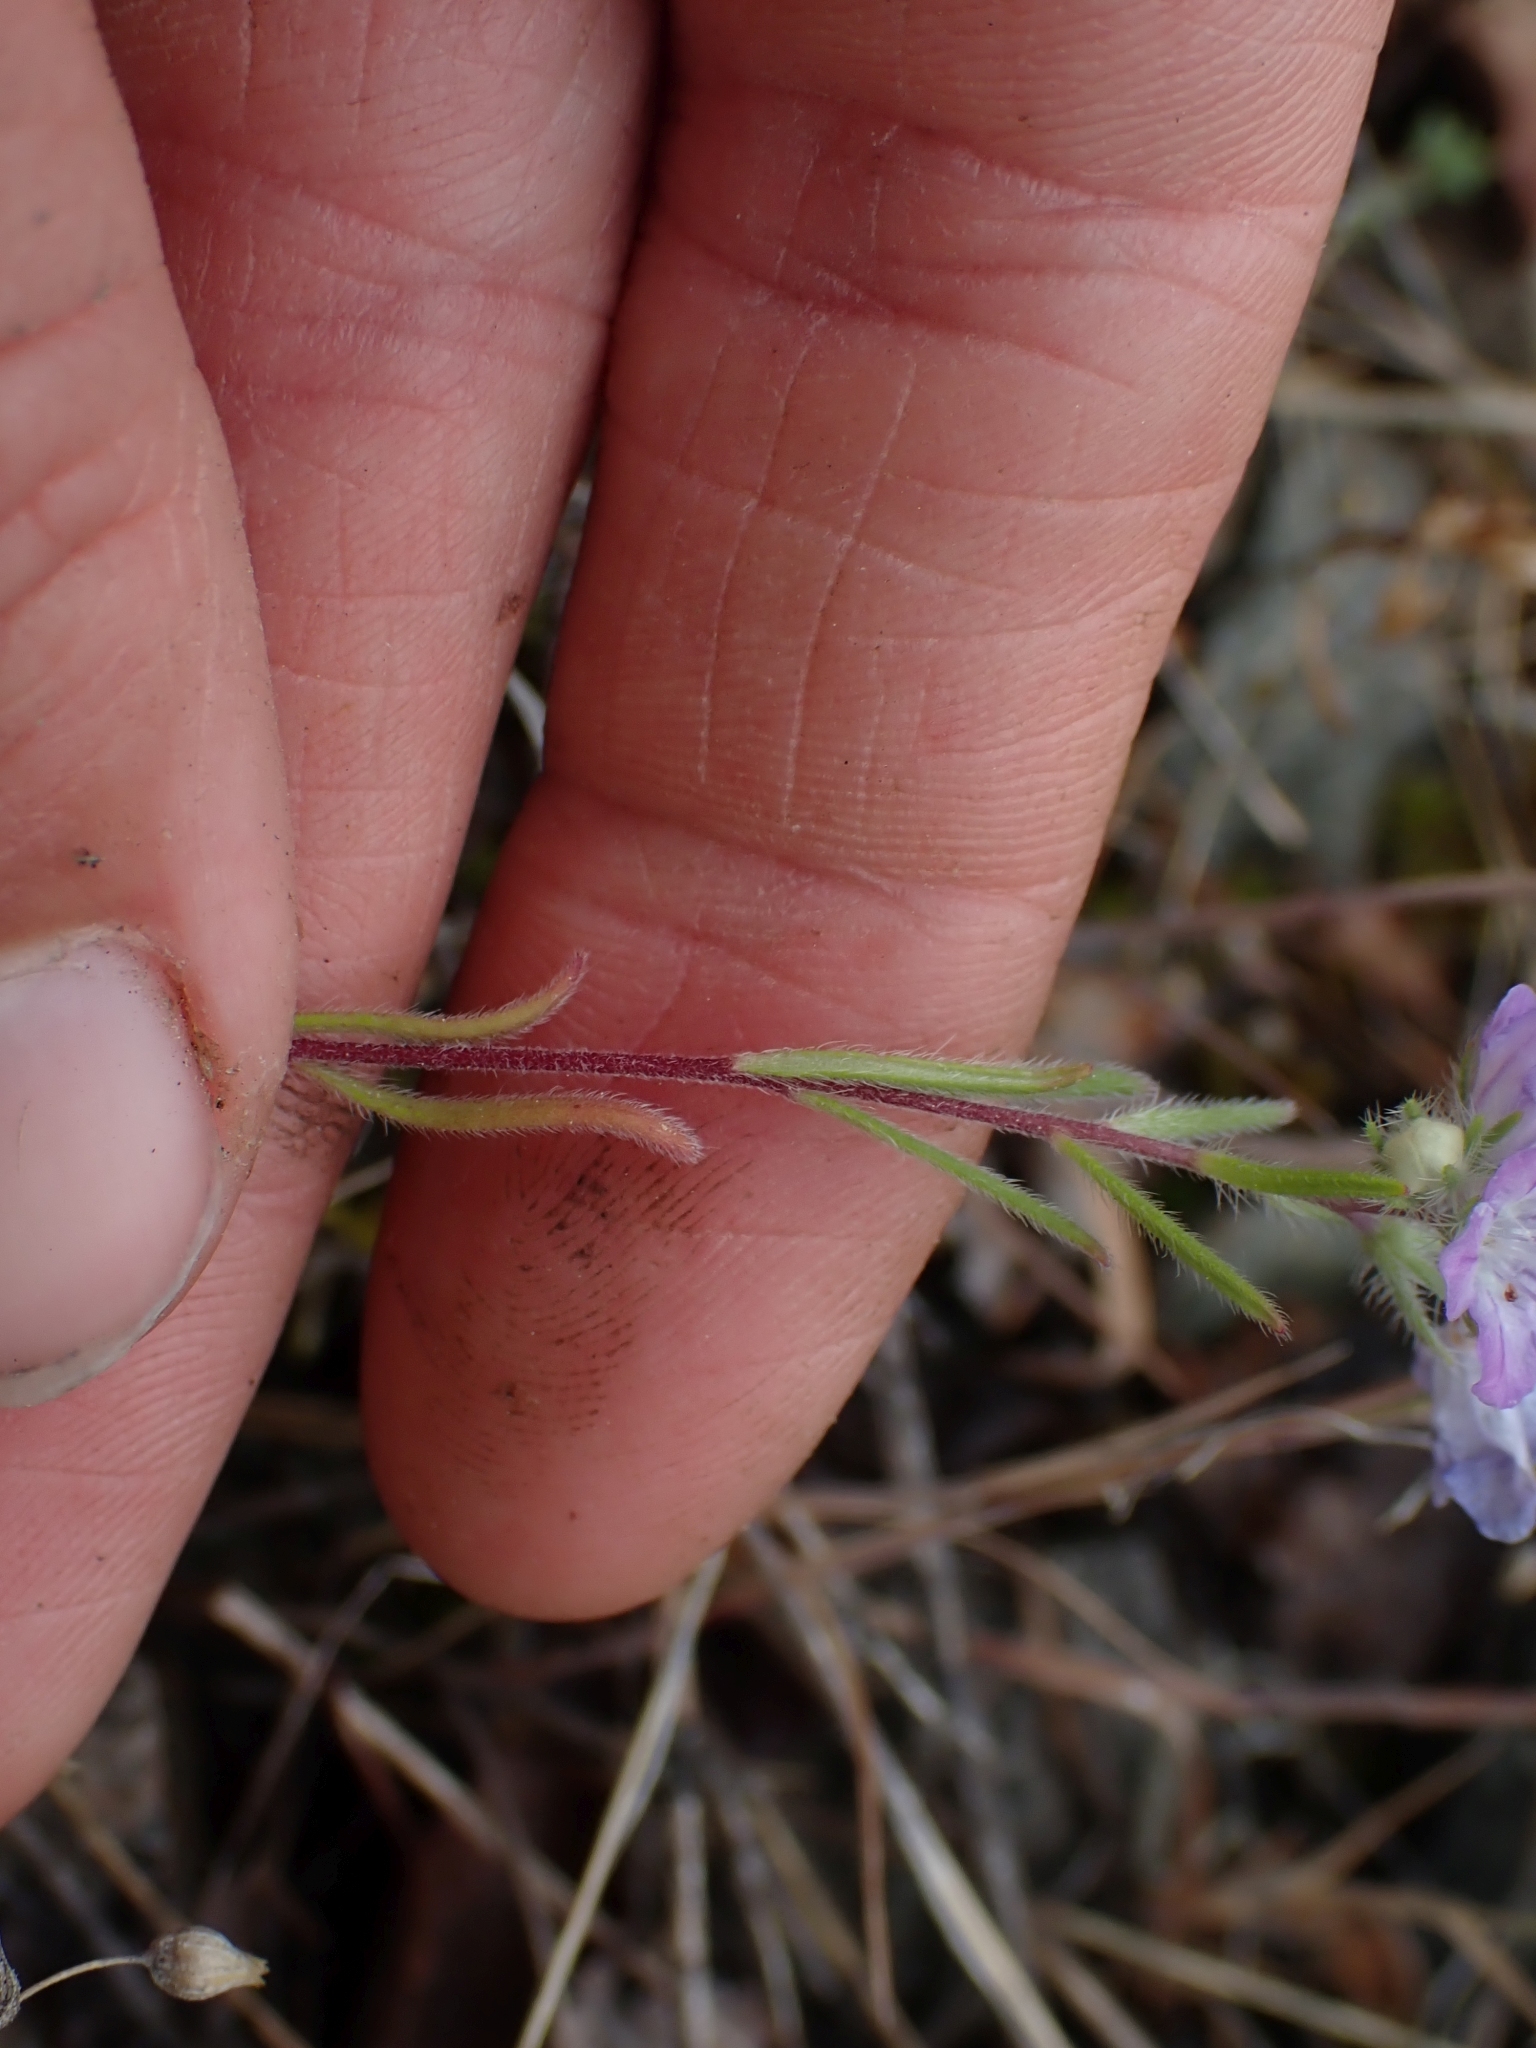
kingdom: Plantae
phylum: Tracheophyta
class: Magnoliopsida
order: Boraginales
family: Hydrophyllaceae
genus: Phacelia
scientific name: Phacelia linearis
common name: Linear-leaved phacelia
